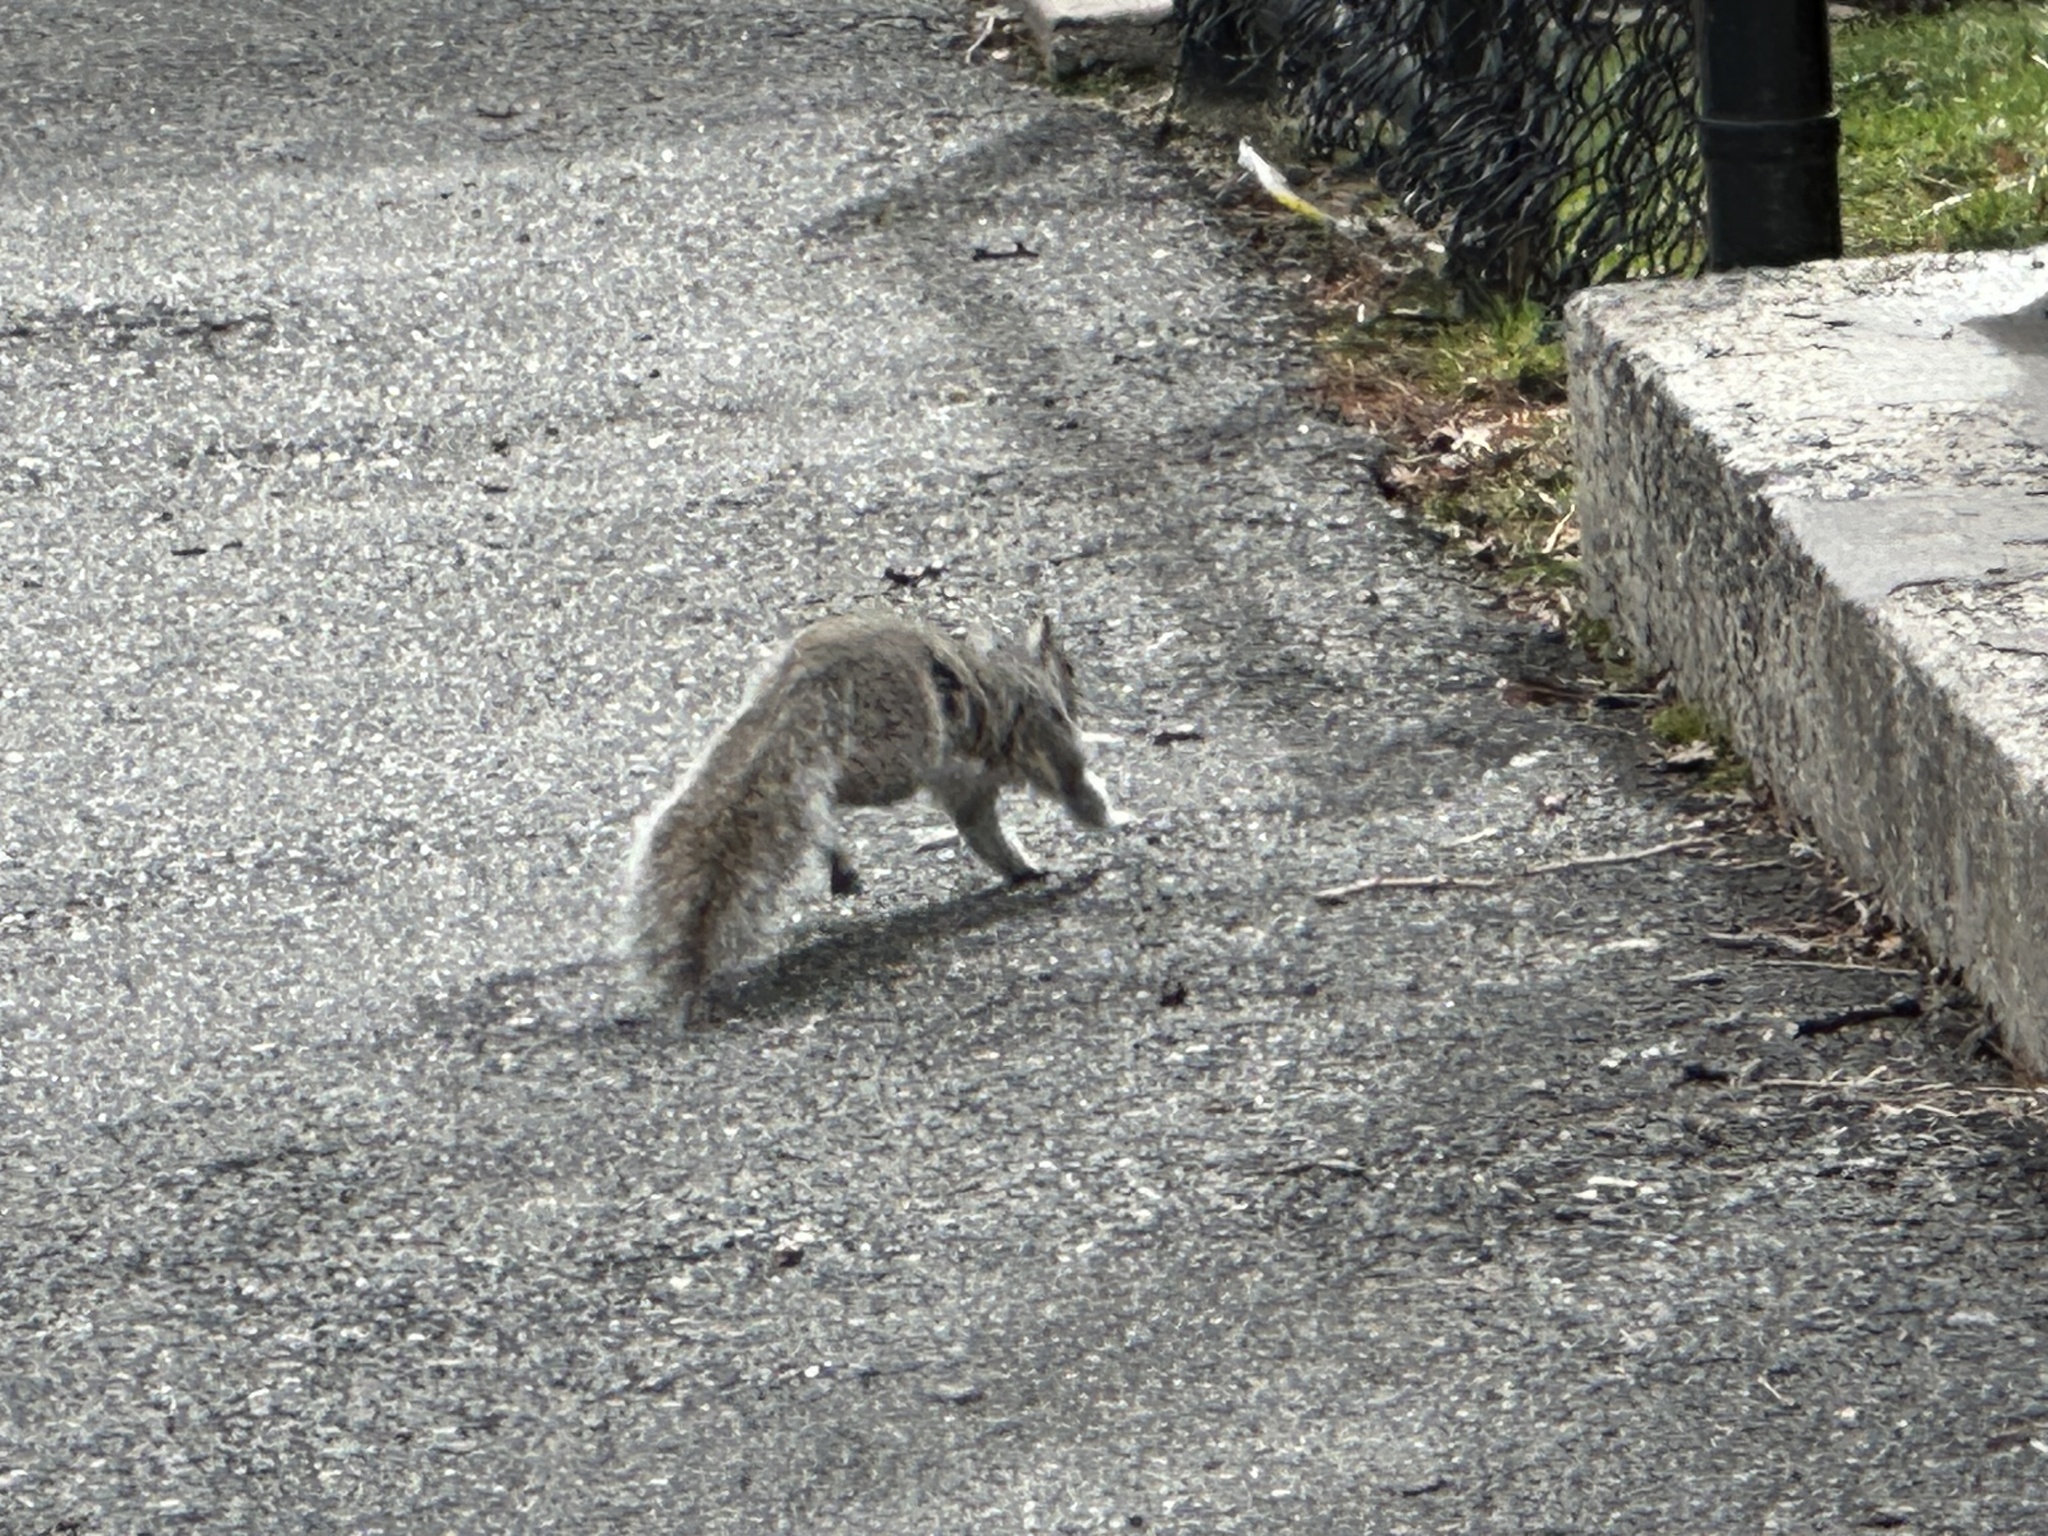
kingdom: Animalia
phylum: Chordata
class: Mammalia
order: Rodentia
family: Sciuridae
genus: Sciurus
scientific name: Sciurus carolinensis
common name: Eastern gray squirrel
